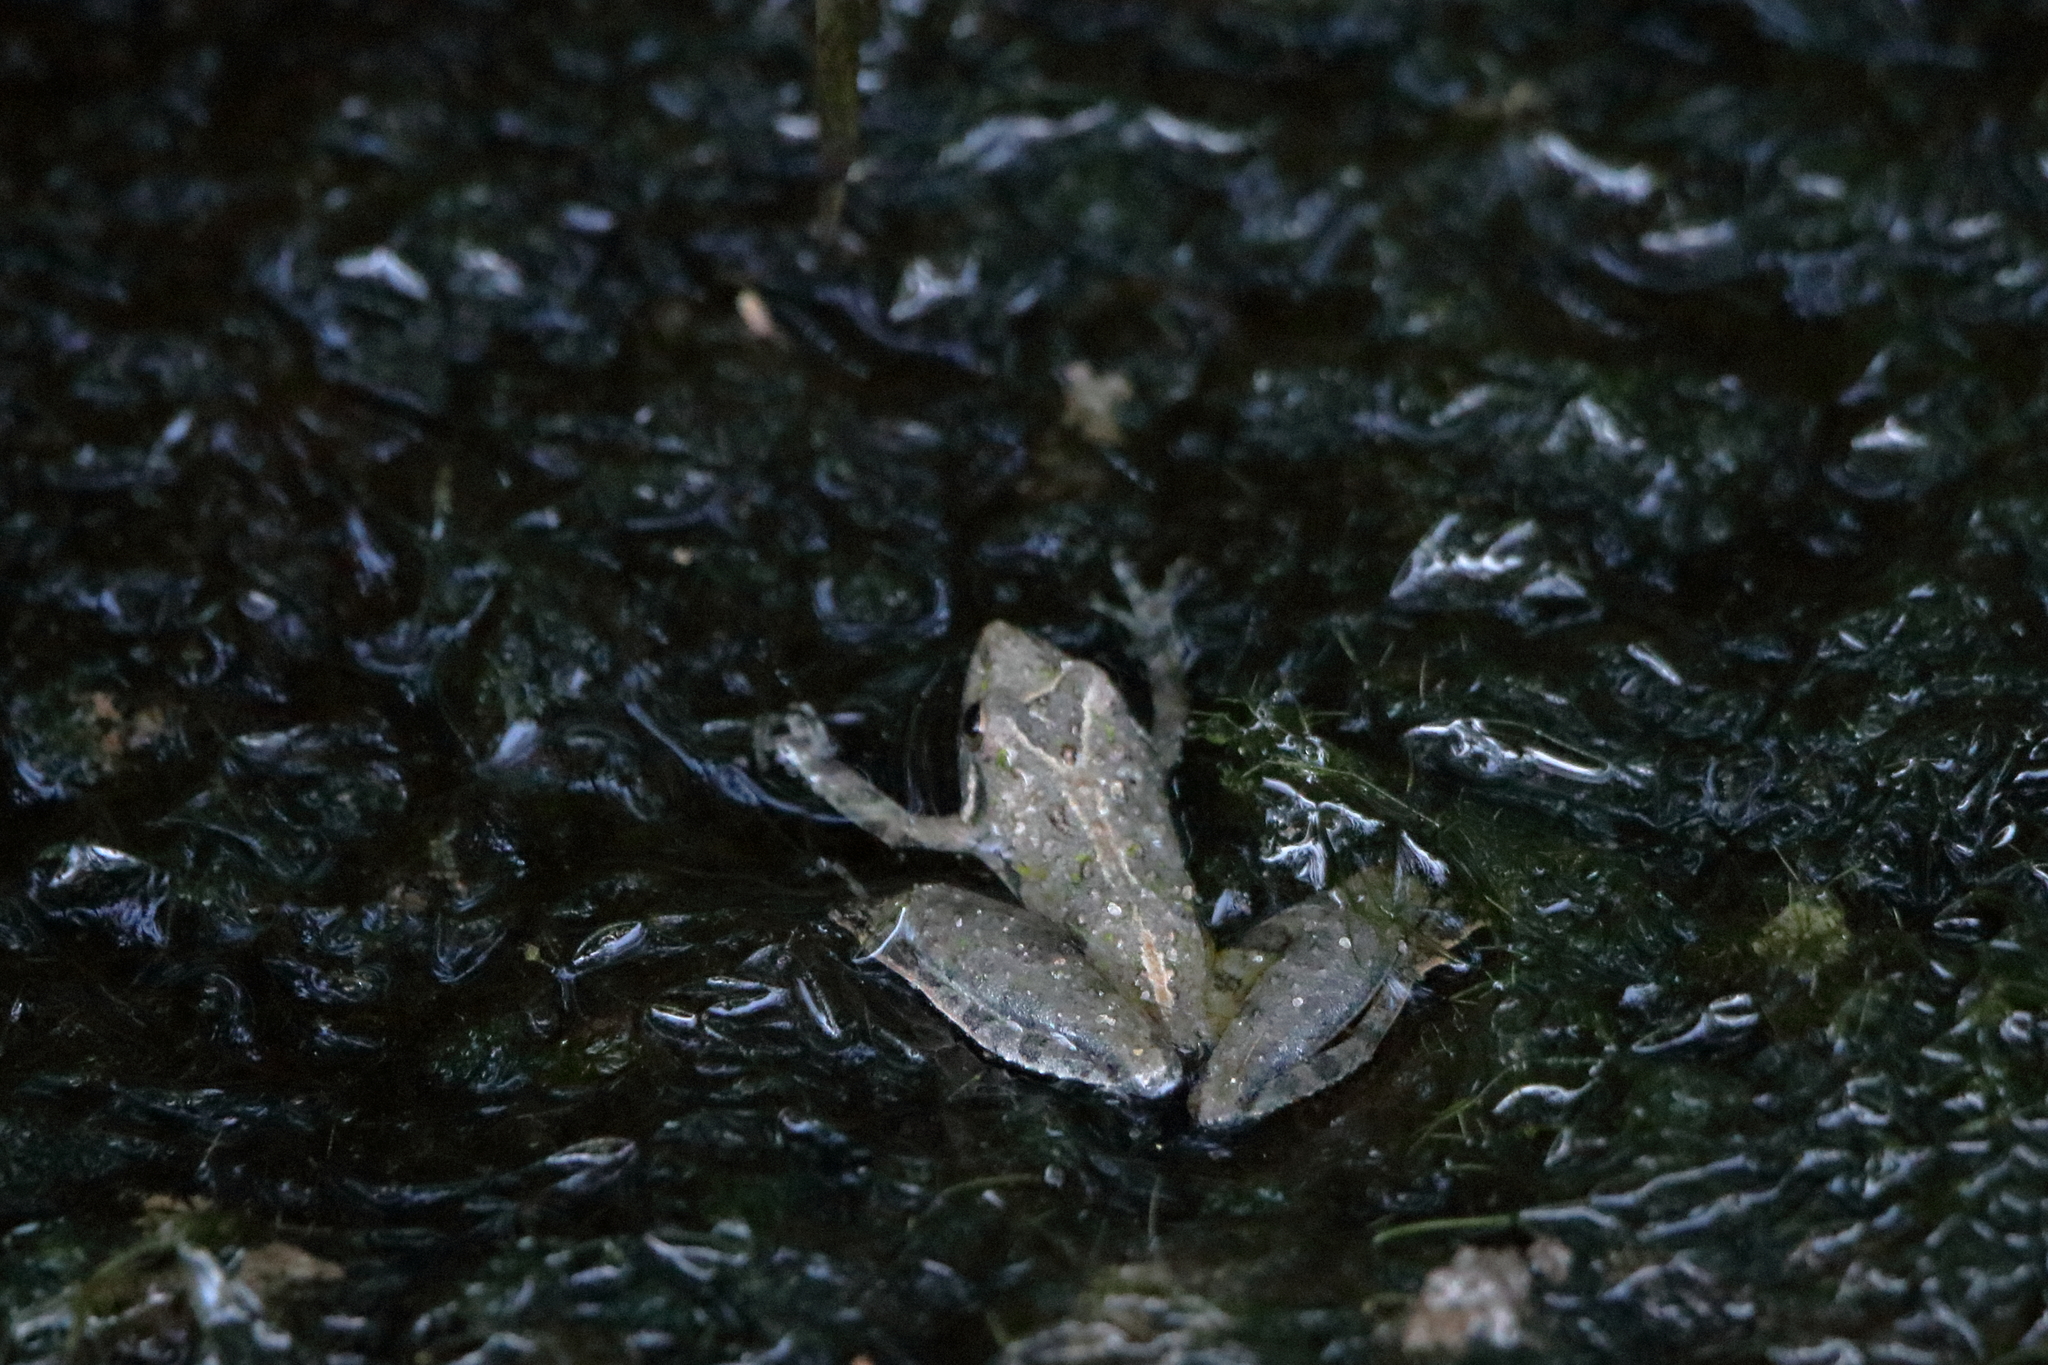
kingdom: Animalia
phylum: Chordata
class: Amphibia
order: Anura
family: Hylidae
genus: Acris
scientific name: Acris gryllus
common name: Southern cricket frog
